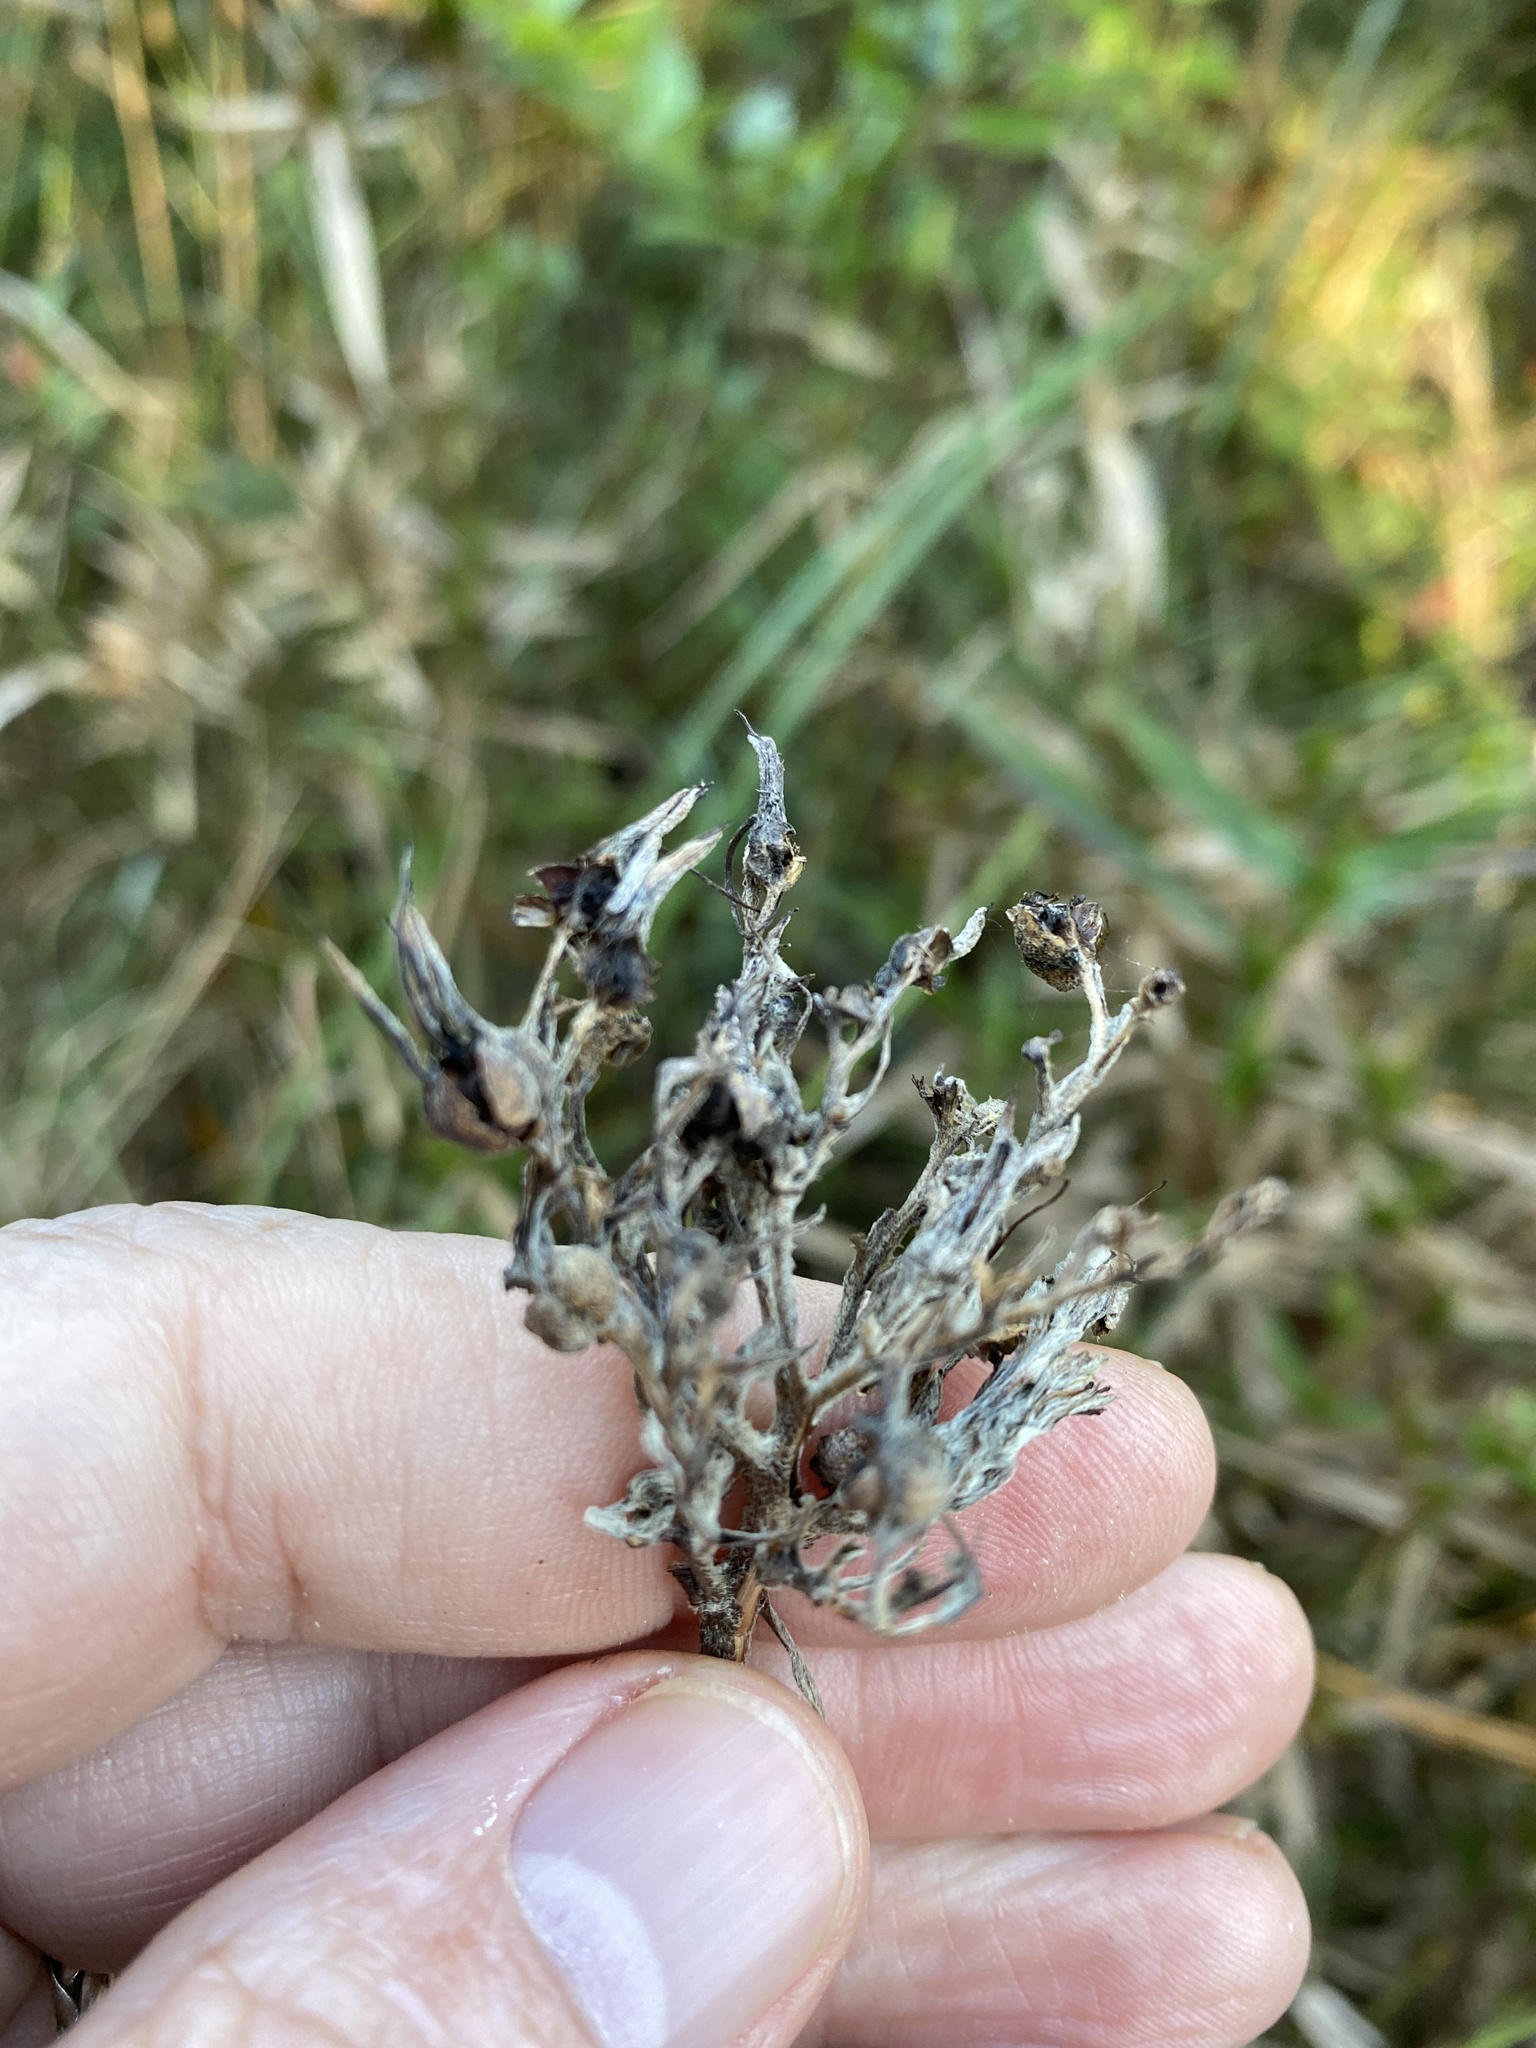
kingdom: Plantae
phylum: Tracheophyta
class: Liliopsida
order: Commelinales
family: Haemodoraceae
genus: Lachnanthes
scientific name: Lachnanthes caroliana
